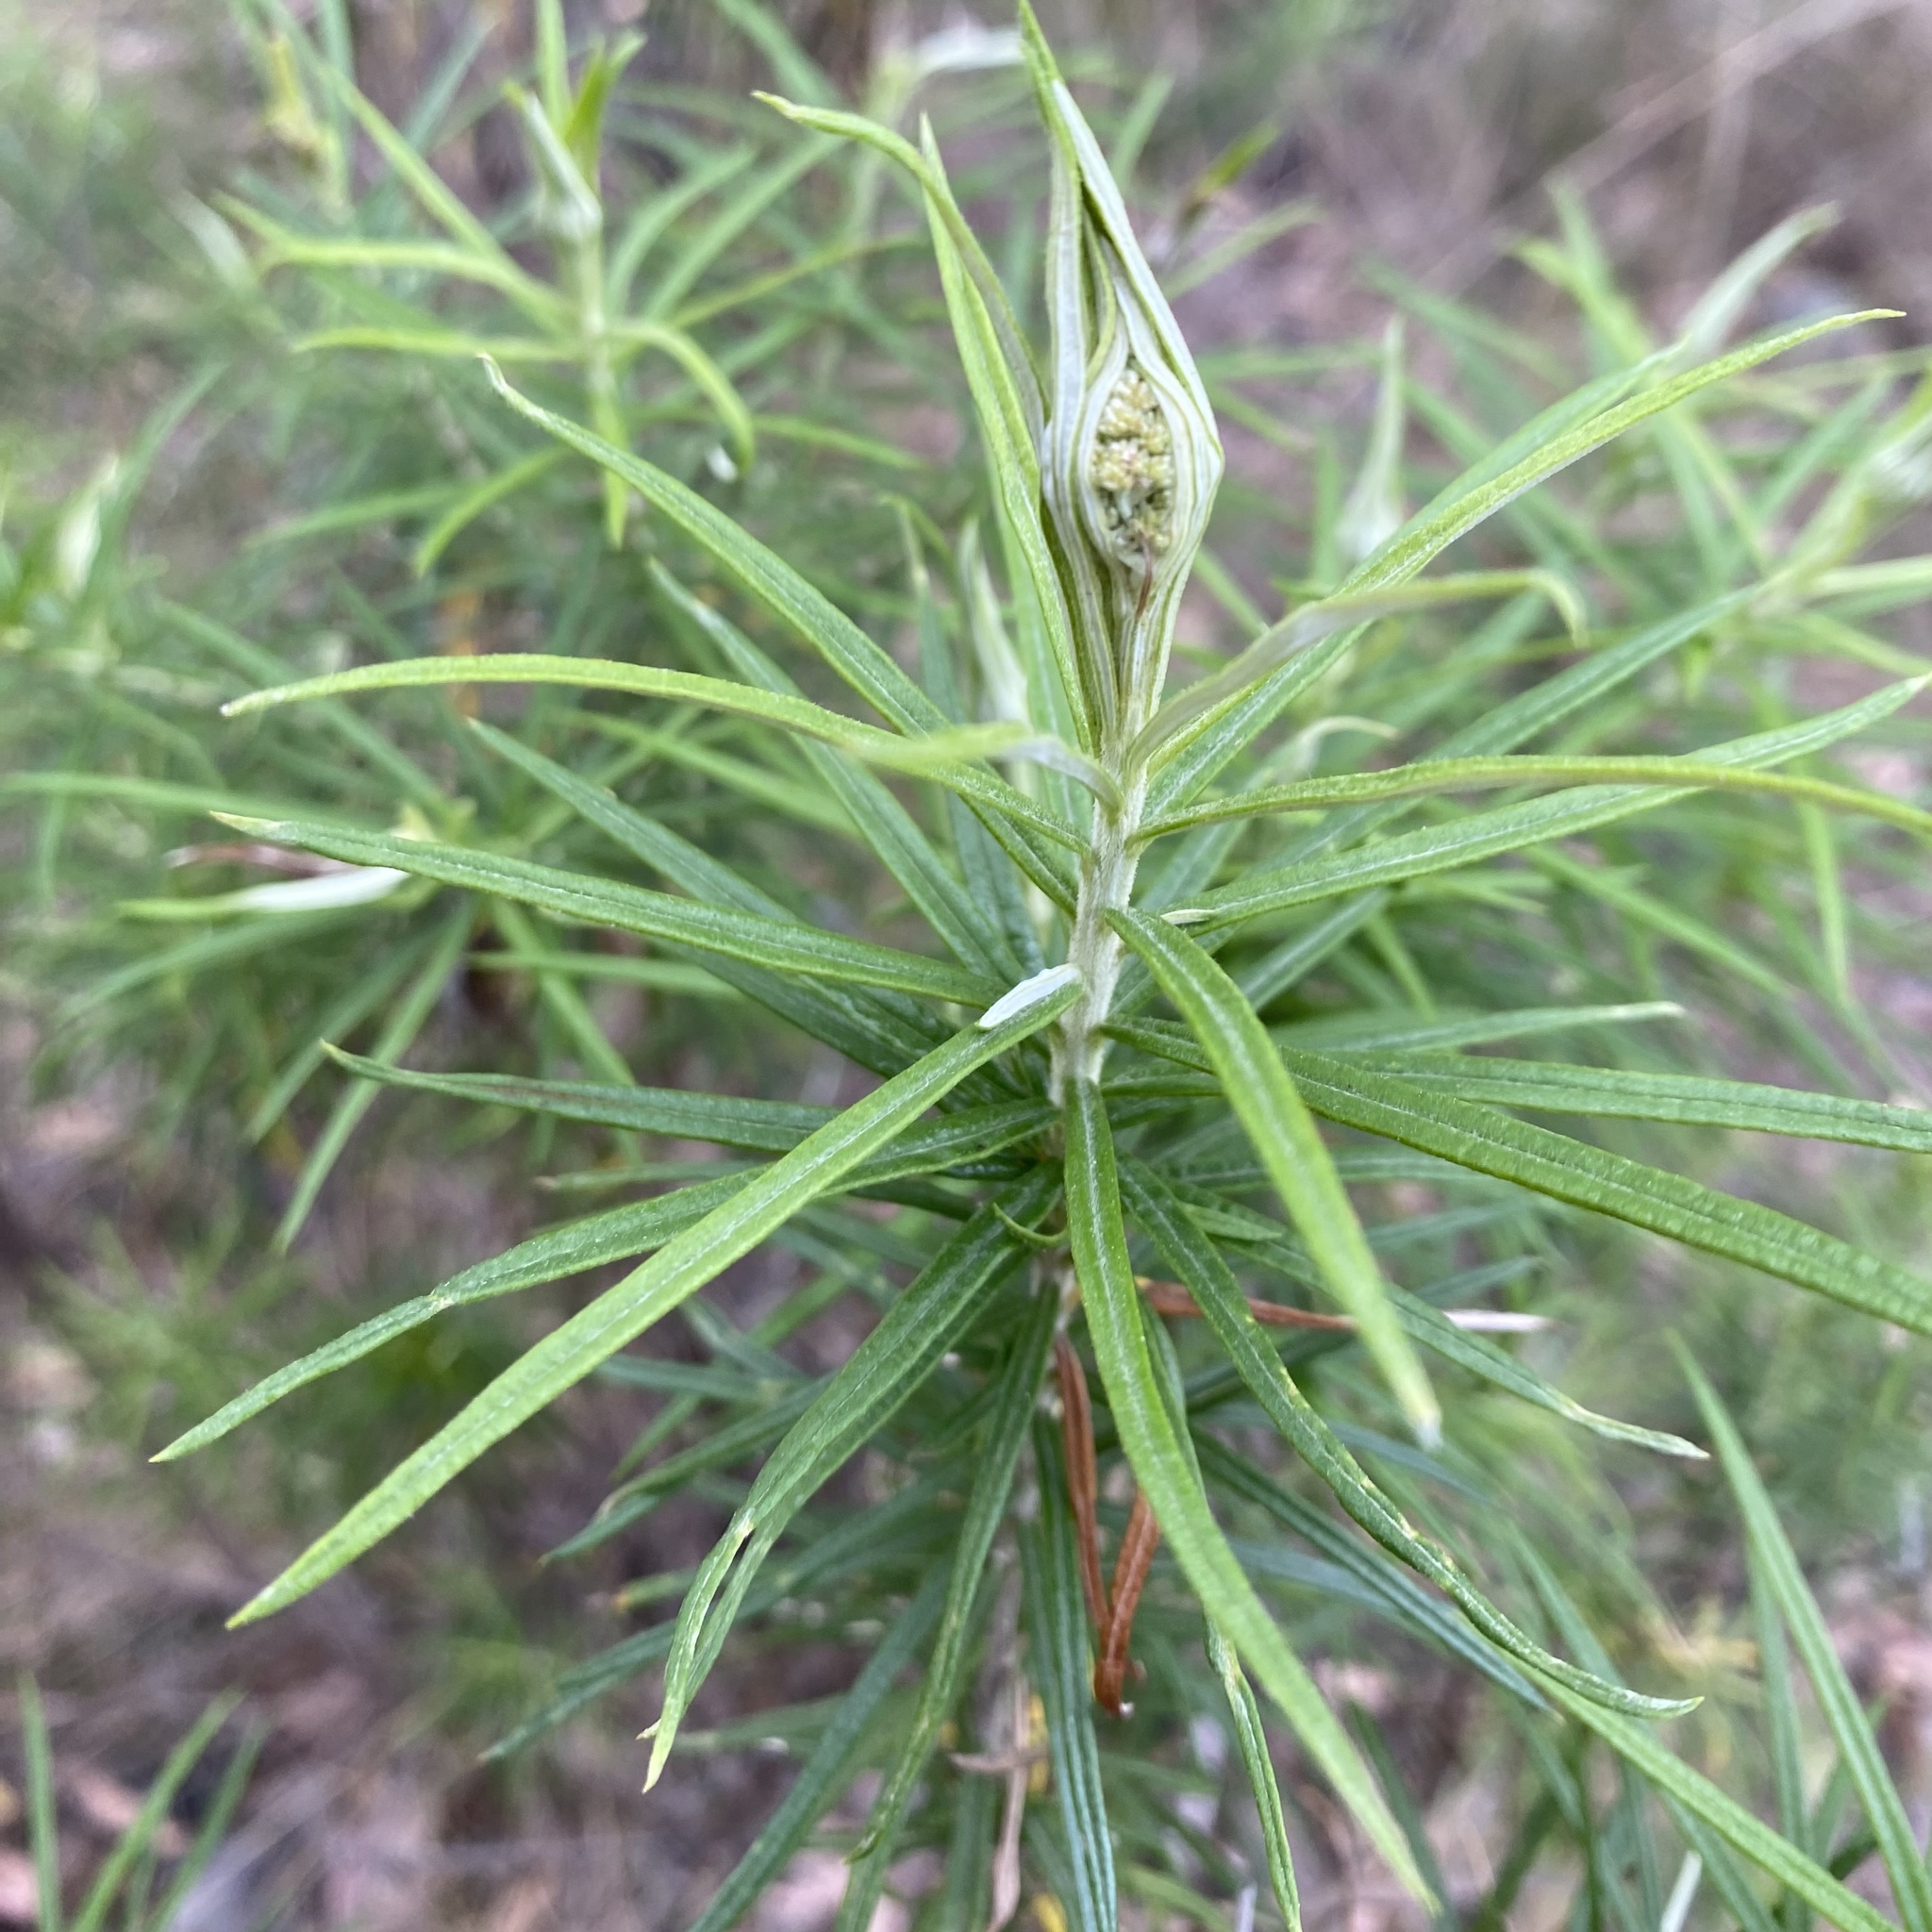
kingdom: Plantae
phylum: Tracheophyta
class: Magnoliopsida
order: Asterales
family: Asteraceae
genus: Cassinia
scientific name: Cassinia longifolia
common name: Longleaf-dogwood
